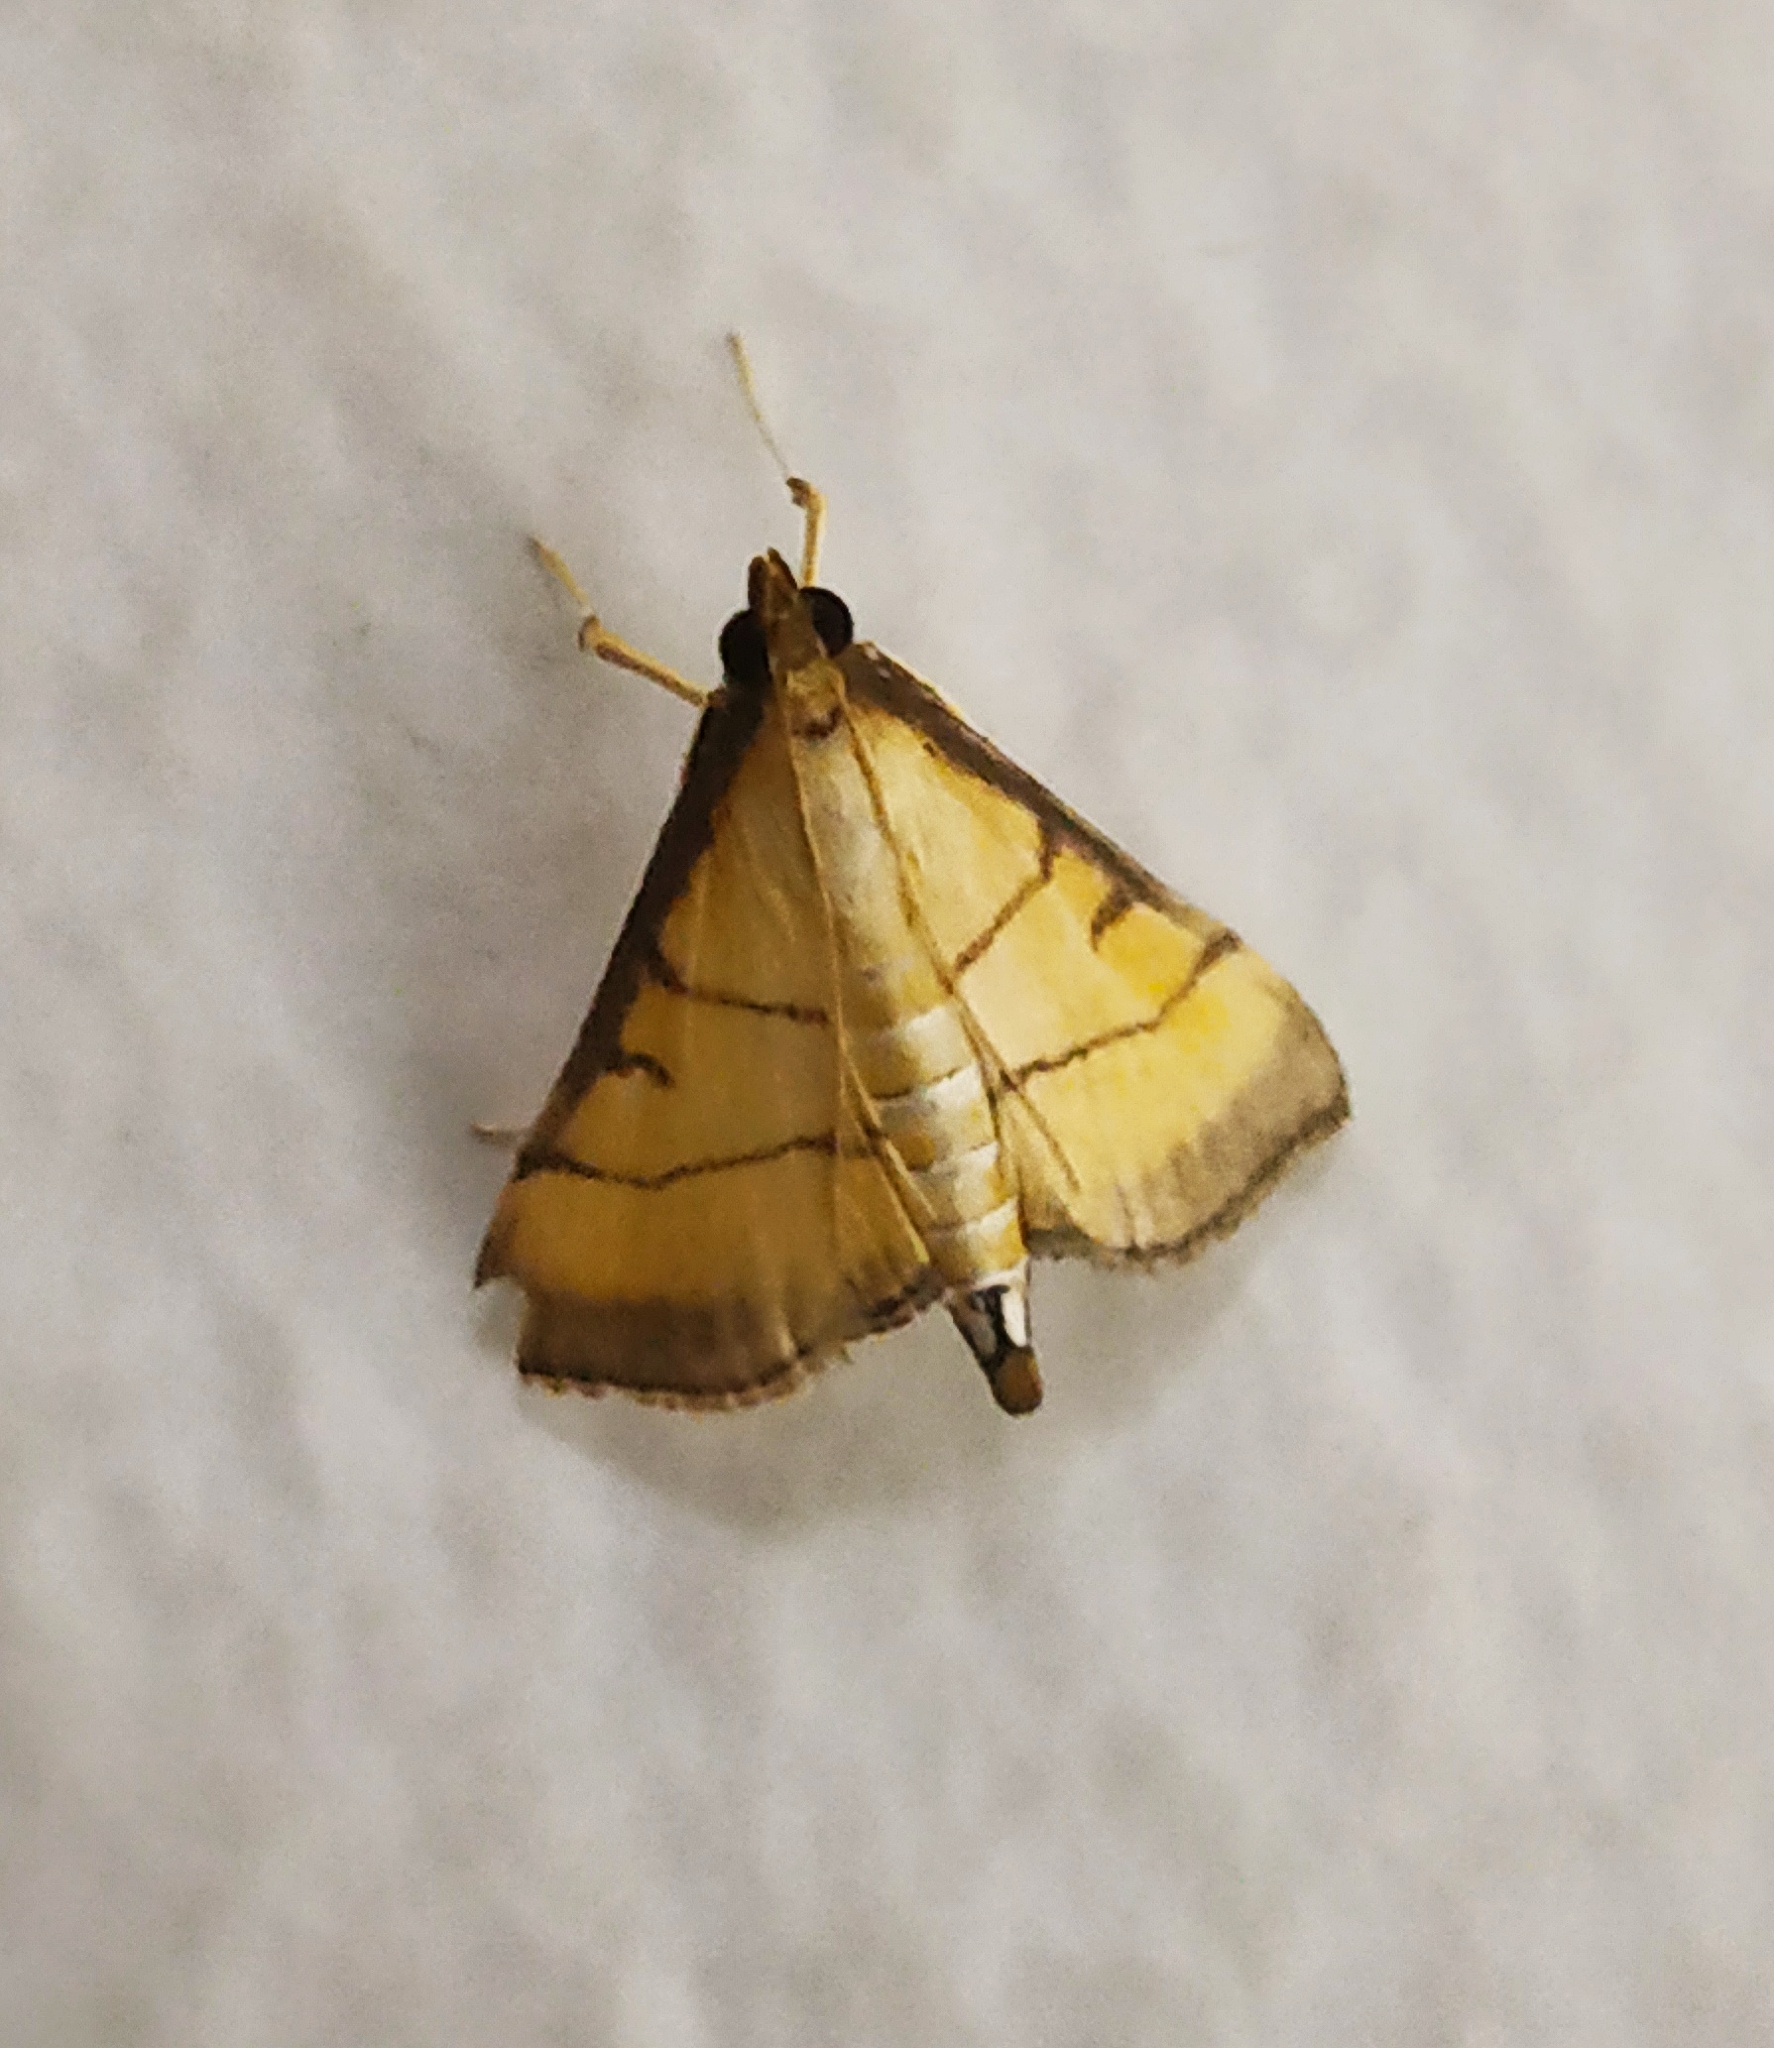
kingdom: Animalia
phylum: Arthropoda
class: Insecta
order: Lepidoptera
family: Crambidae
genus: Cnaphalocrocis
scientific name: Cnaphalocrocis medinalis
